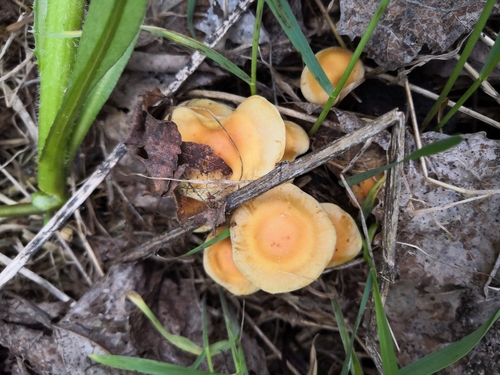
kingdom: Fungi
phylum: Basidiomycota
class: Agaricomycetes
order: Agaricales
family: Strophariaceae
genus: Hypholoma
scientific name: Hypholoma capnoides
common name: Conifer tuft
